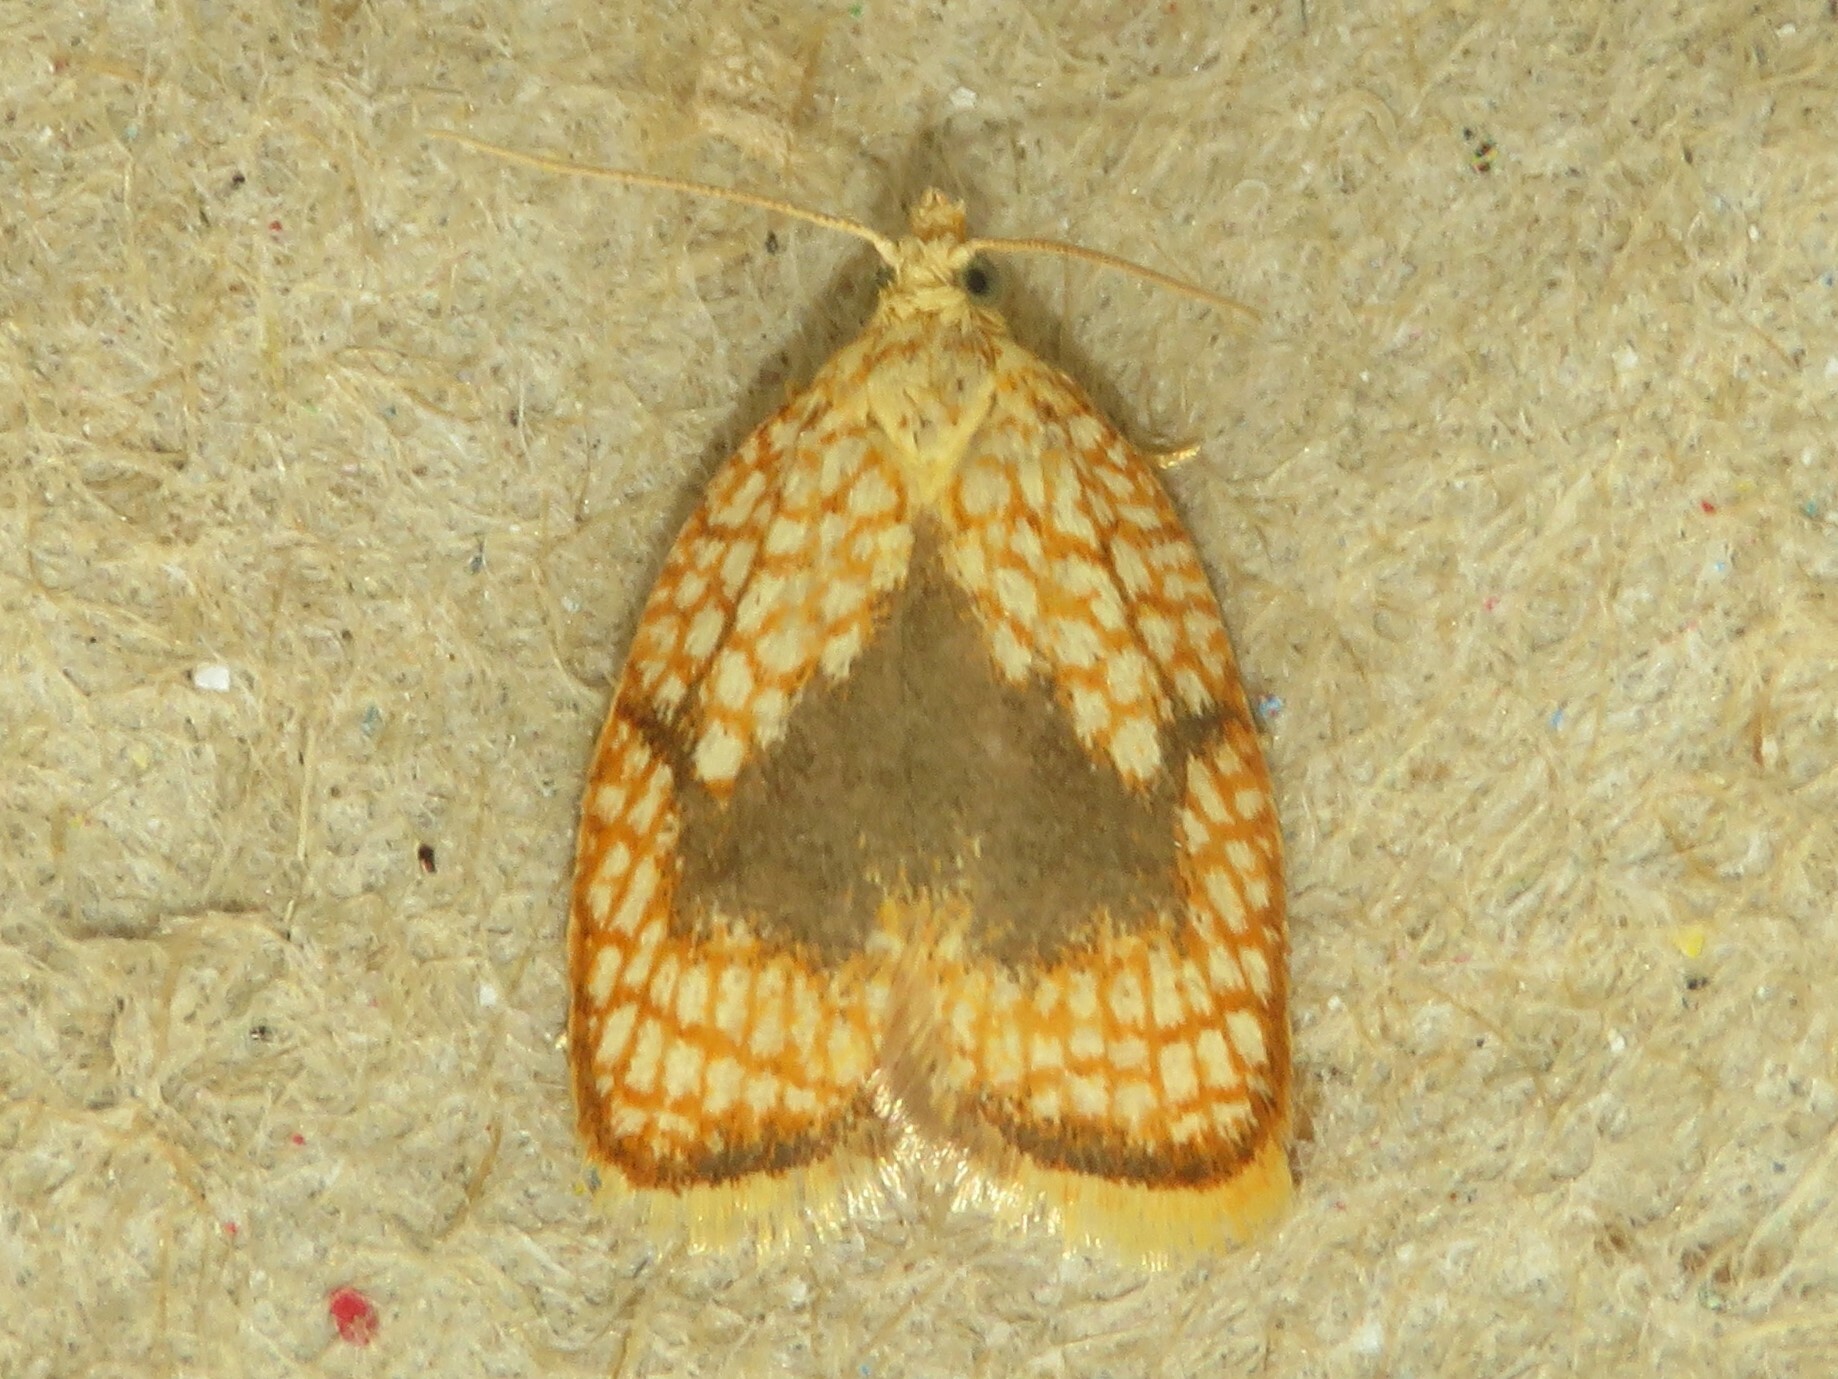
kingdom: Animalia
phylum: Arthropoda
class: Insecta
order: Lepidoptera
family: Tortricidae
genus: Acleris
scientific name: Acleris forsskaleana
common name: Maple button
